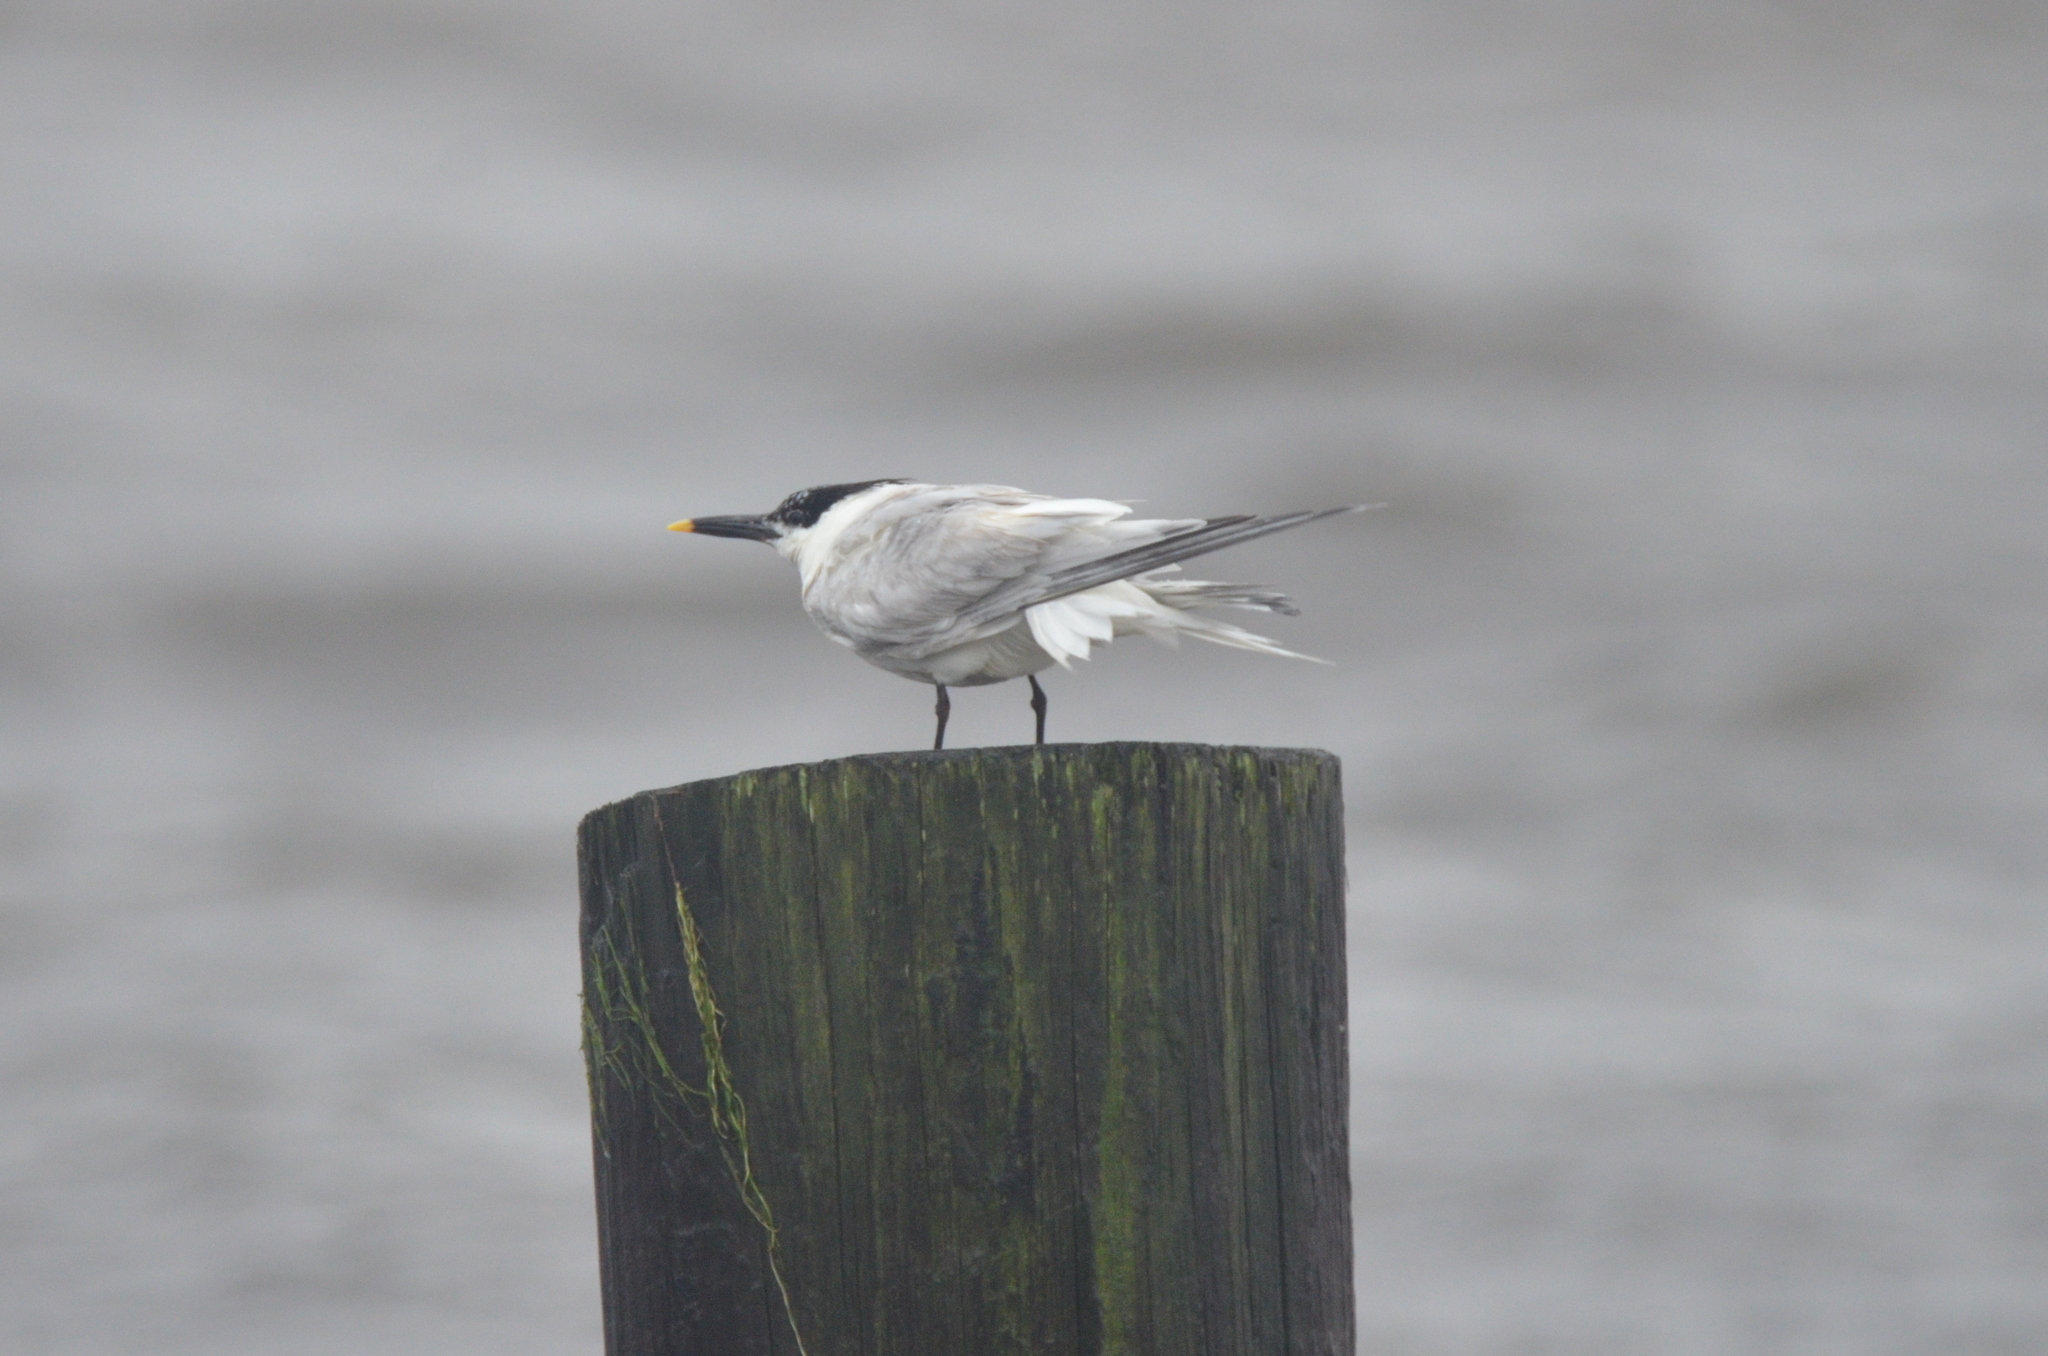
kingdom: Animalia
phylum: Chordata
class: Aves
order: Charadriiformes
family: Laridae
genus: Thalasseus
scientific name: Thalasseus sandvicensis
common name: Sandwich tern
